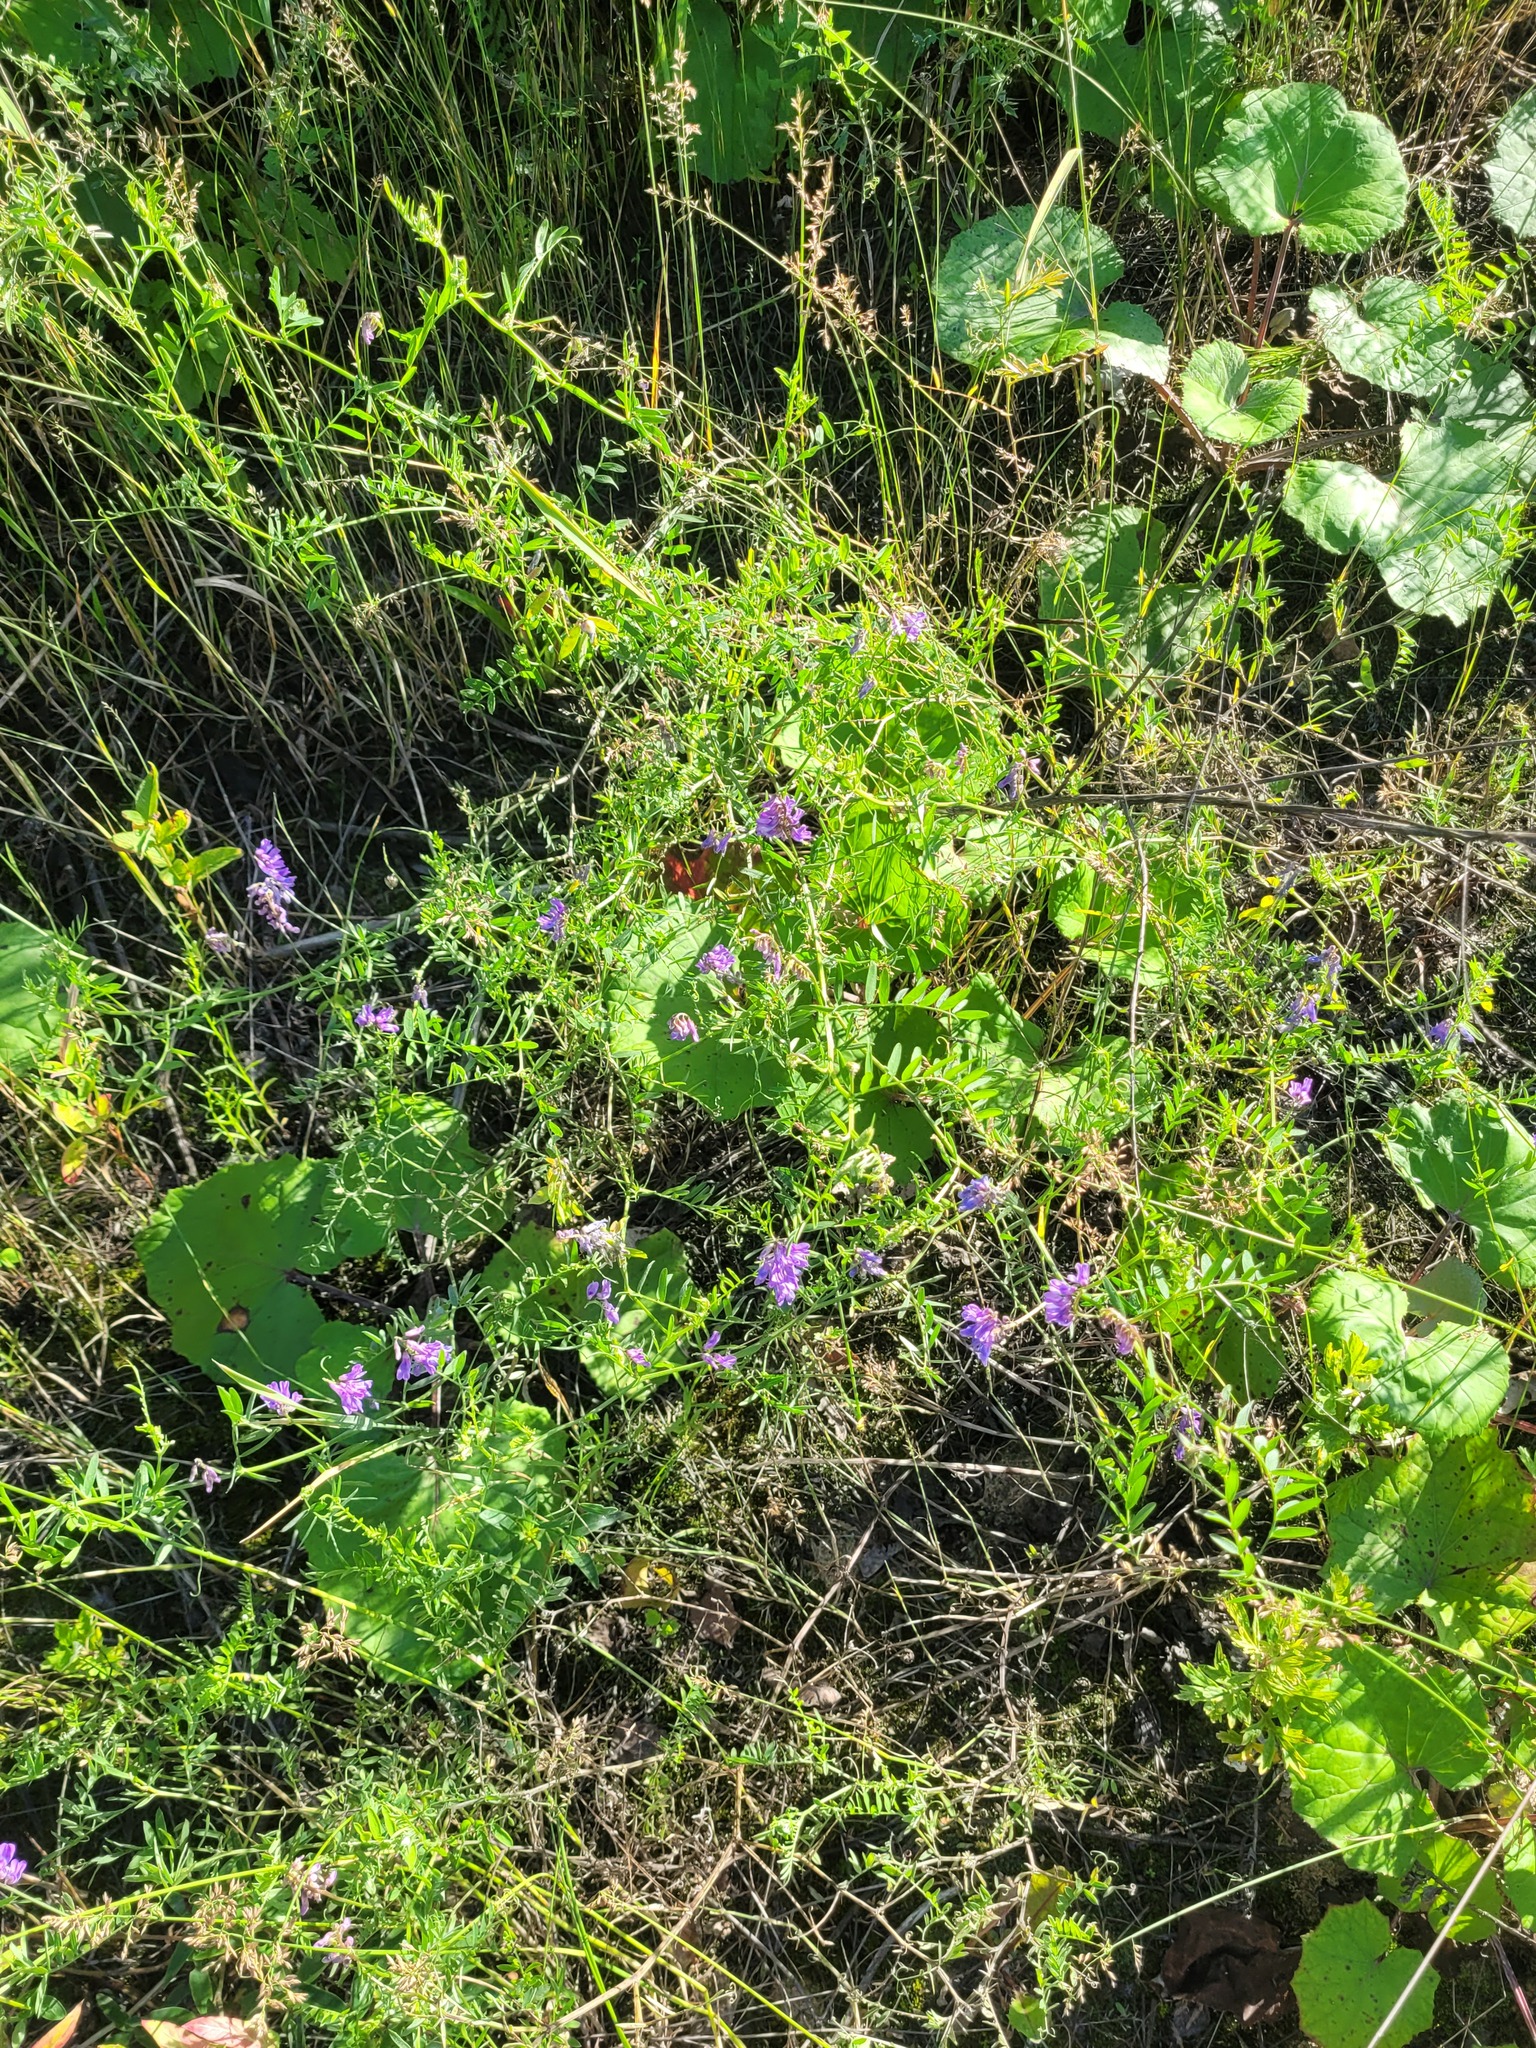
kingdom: Plantae
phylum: Tracheophyta
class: Magnoliopsida
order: Fabales
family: Fabaceae
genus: Vicia
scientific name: Vicia cracca
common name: Bird vetch
